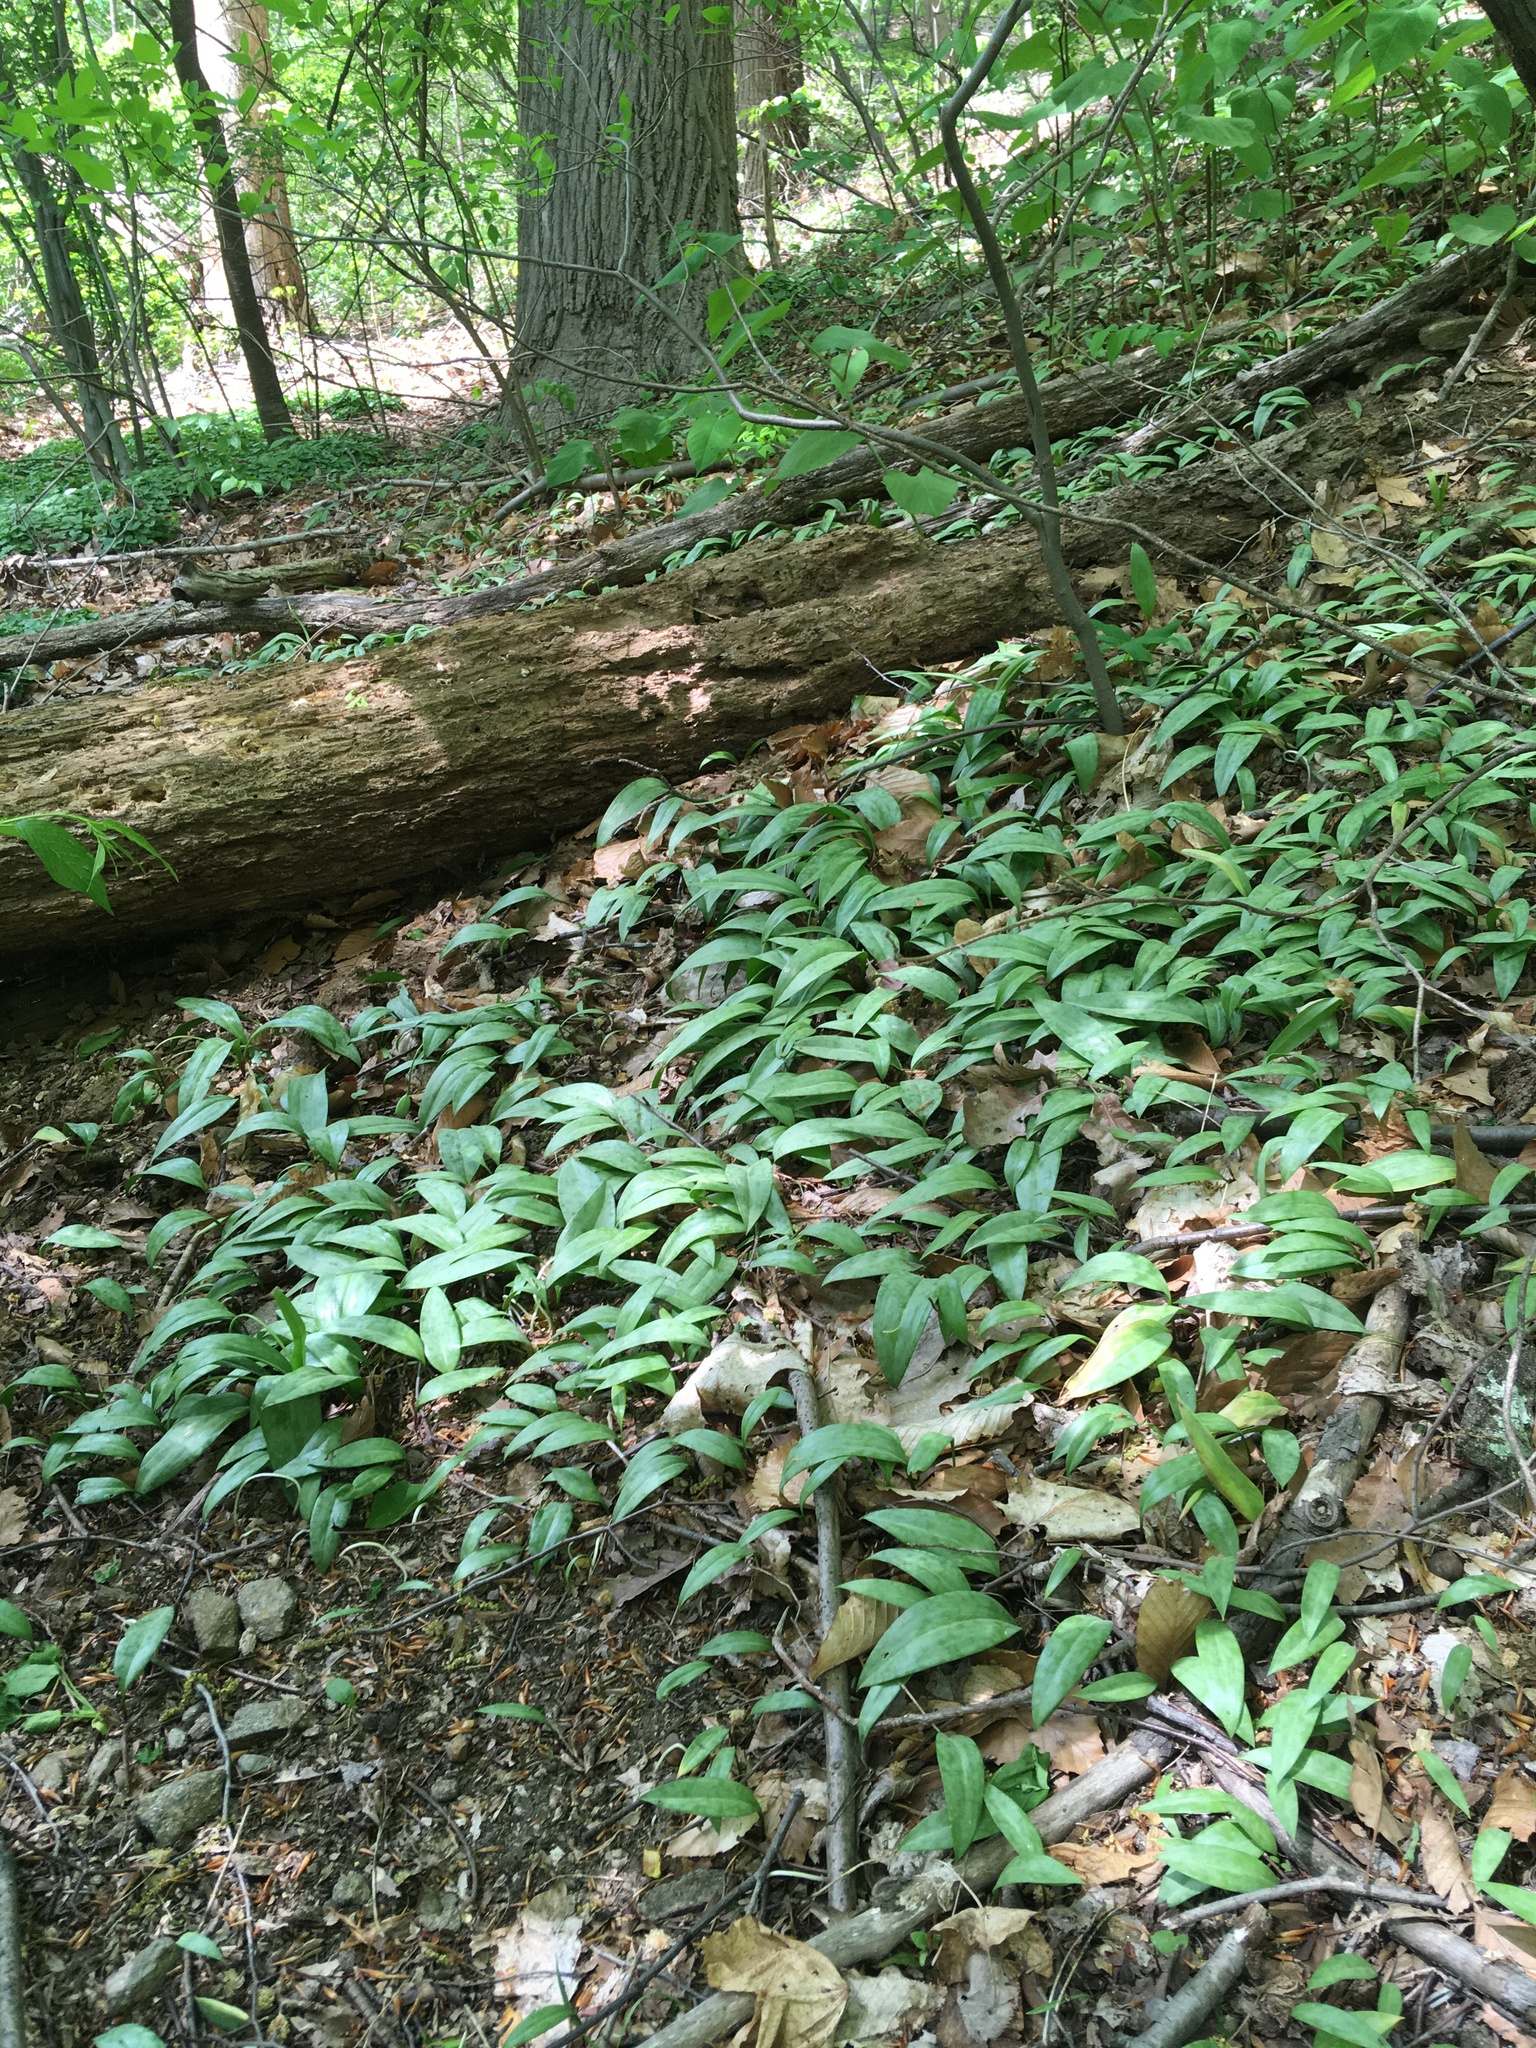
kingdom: Plantae
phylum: Tracheophyta
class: Liliopsida
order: Liliales
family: Liliaceae
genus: Erythronium
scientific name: Erythronium americanum
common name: Yellow adder's-tongue
